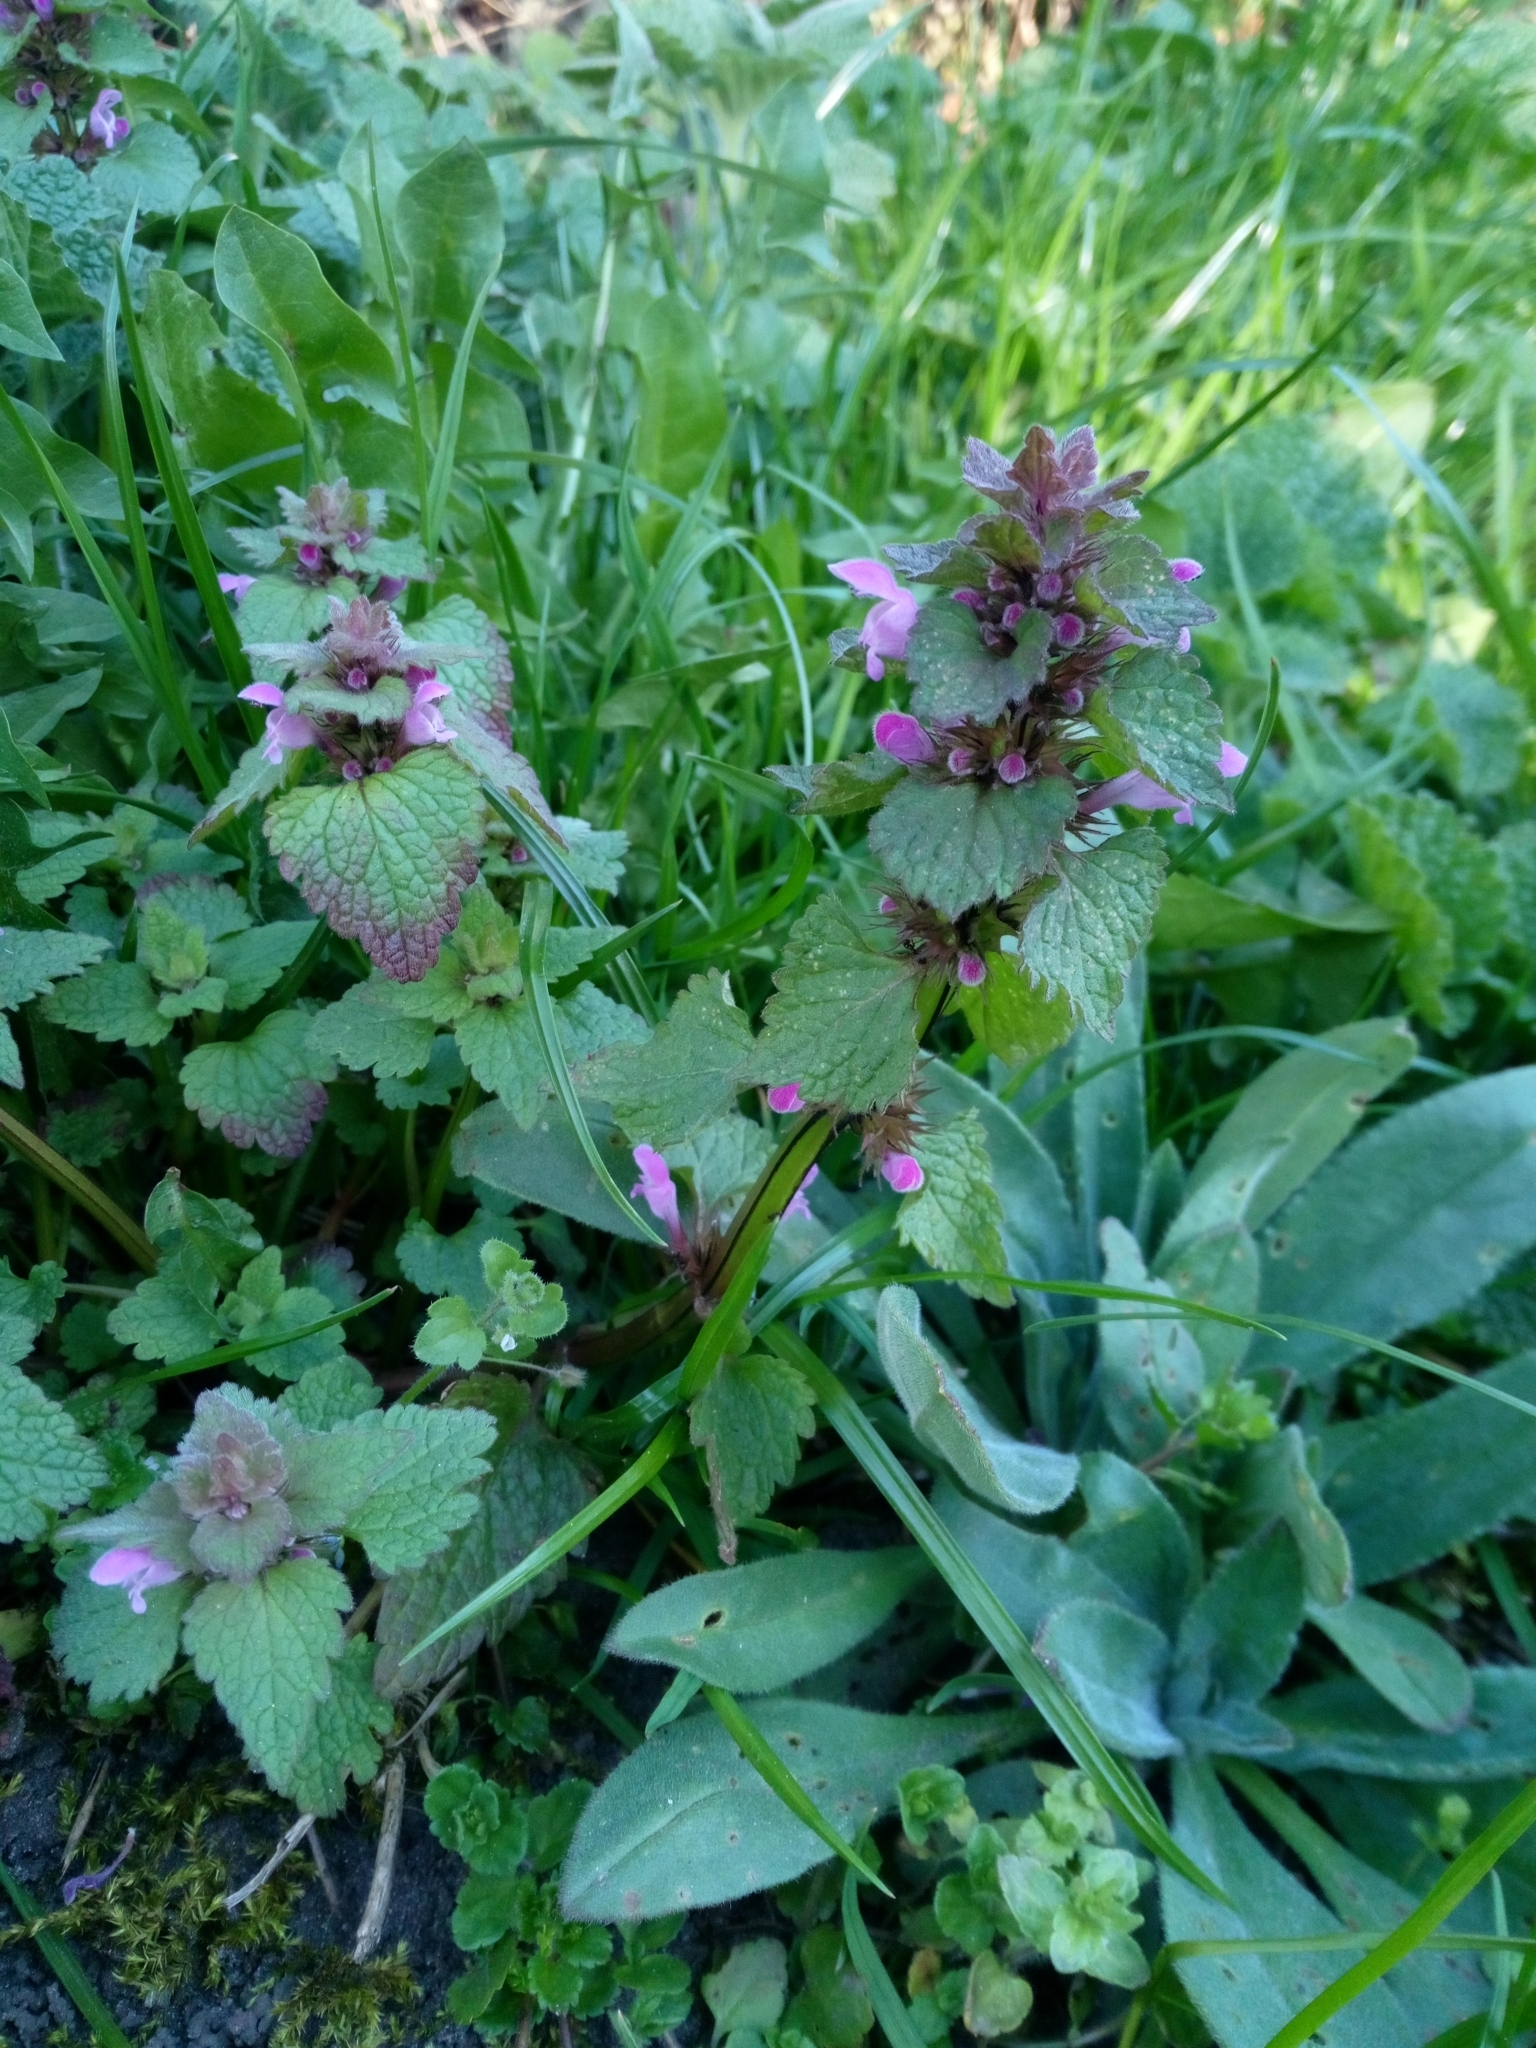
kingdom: Plantae
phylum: Tracheophyta
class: Magnoliopsida
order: Lamiales
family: Lamiaceae
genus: Lamium
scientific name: Lamium purpureum
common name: Red dead-nettle
